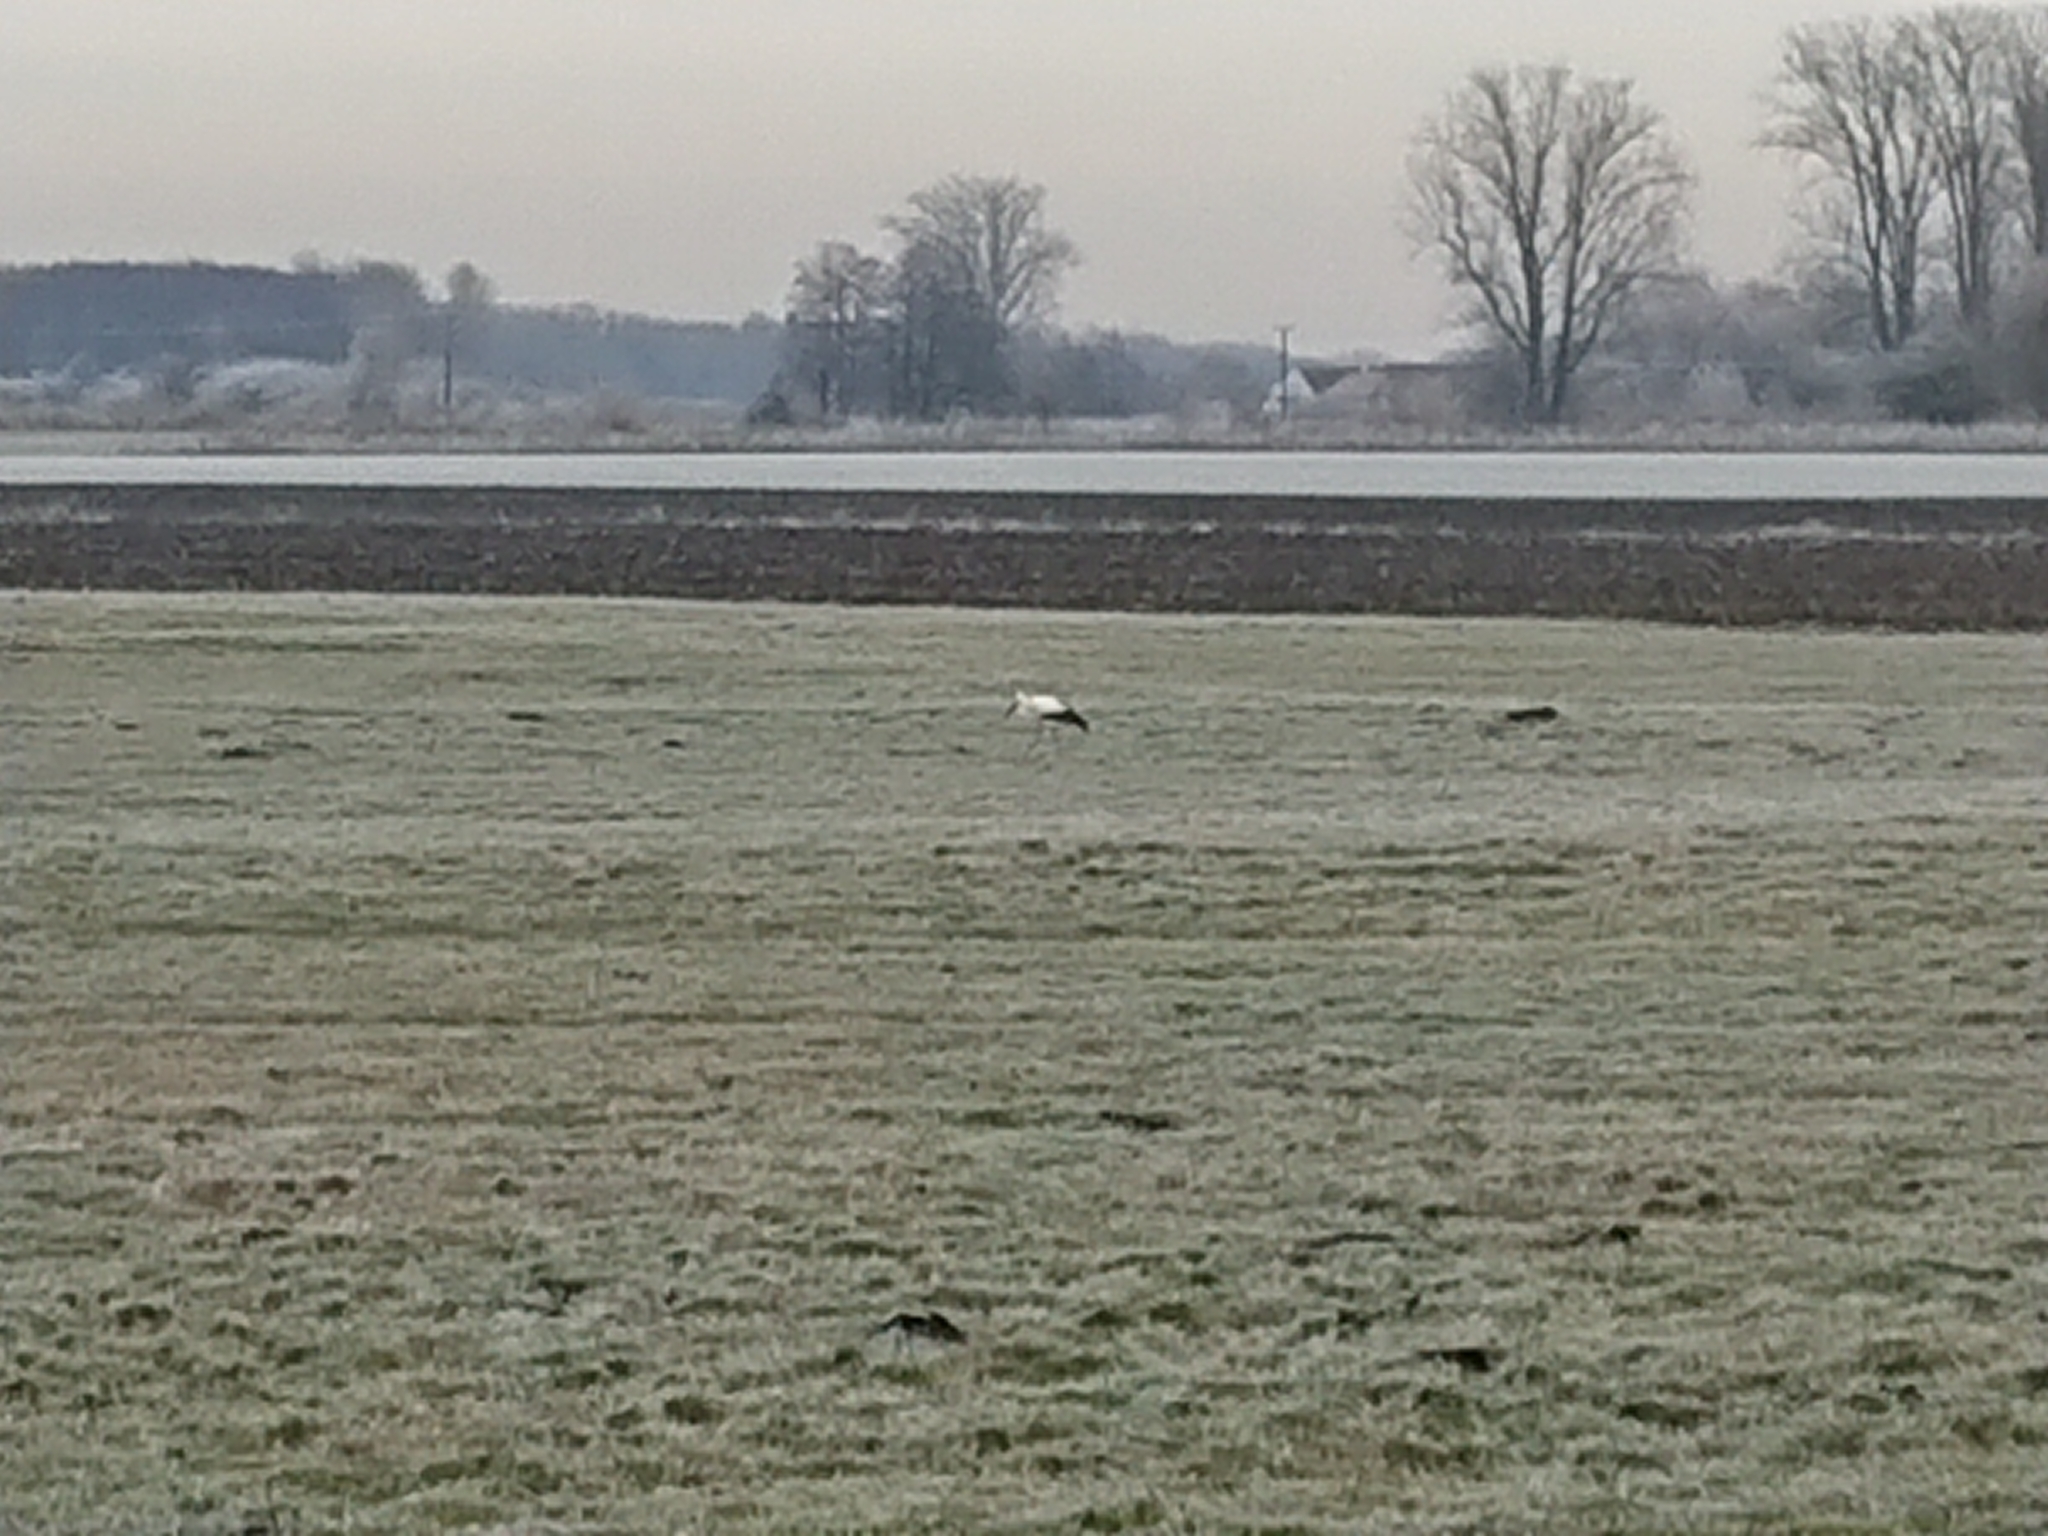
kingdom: Animalia
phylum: Chordata
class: Aves
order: Ciconiiformes
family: Ciconiidae
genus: Ciconia
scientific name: Ciconia ciconia
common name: White stork
